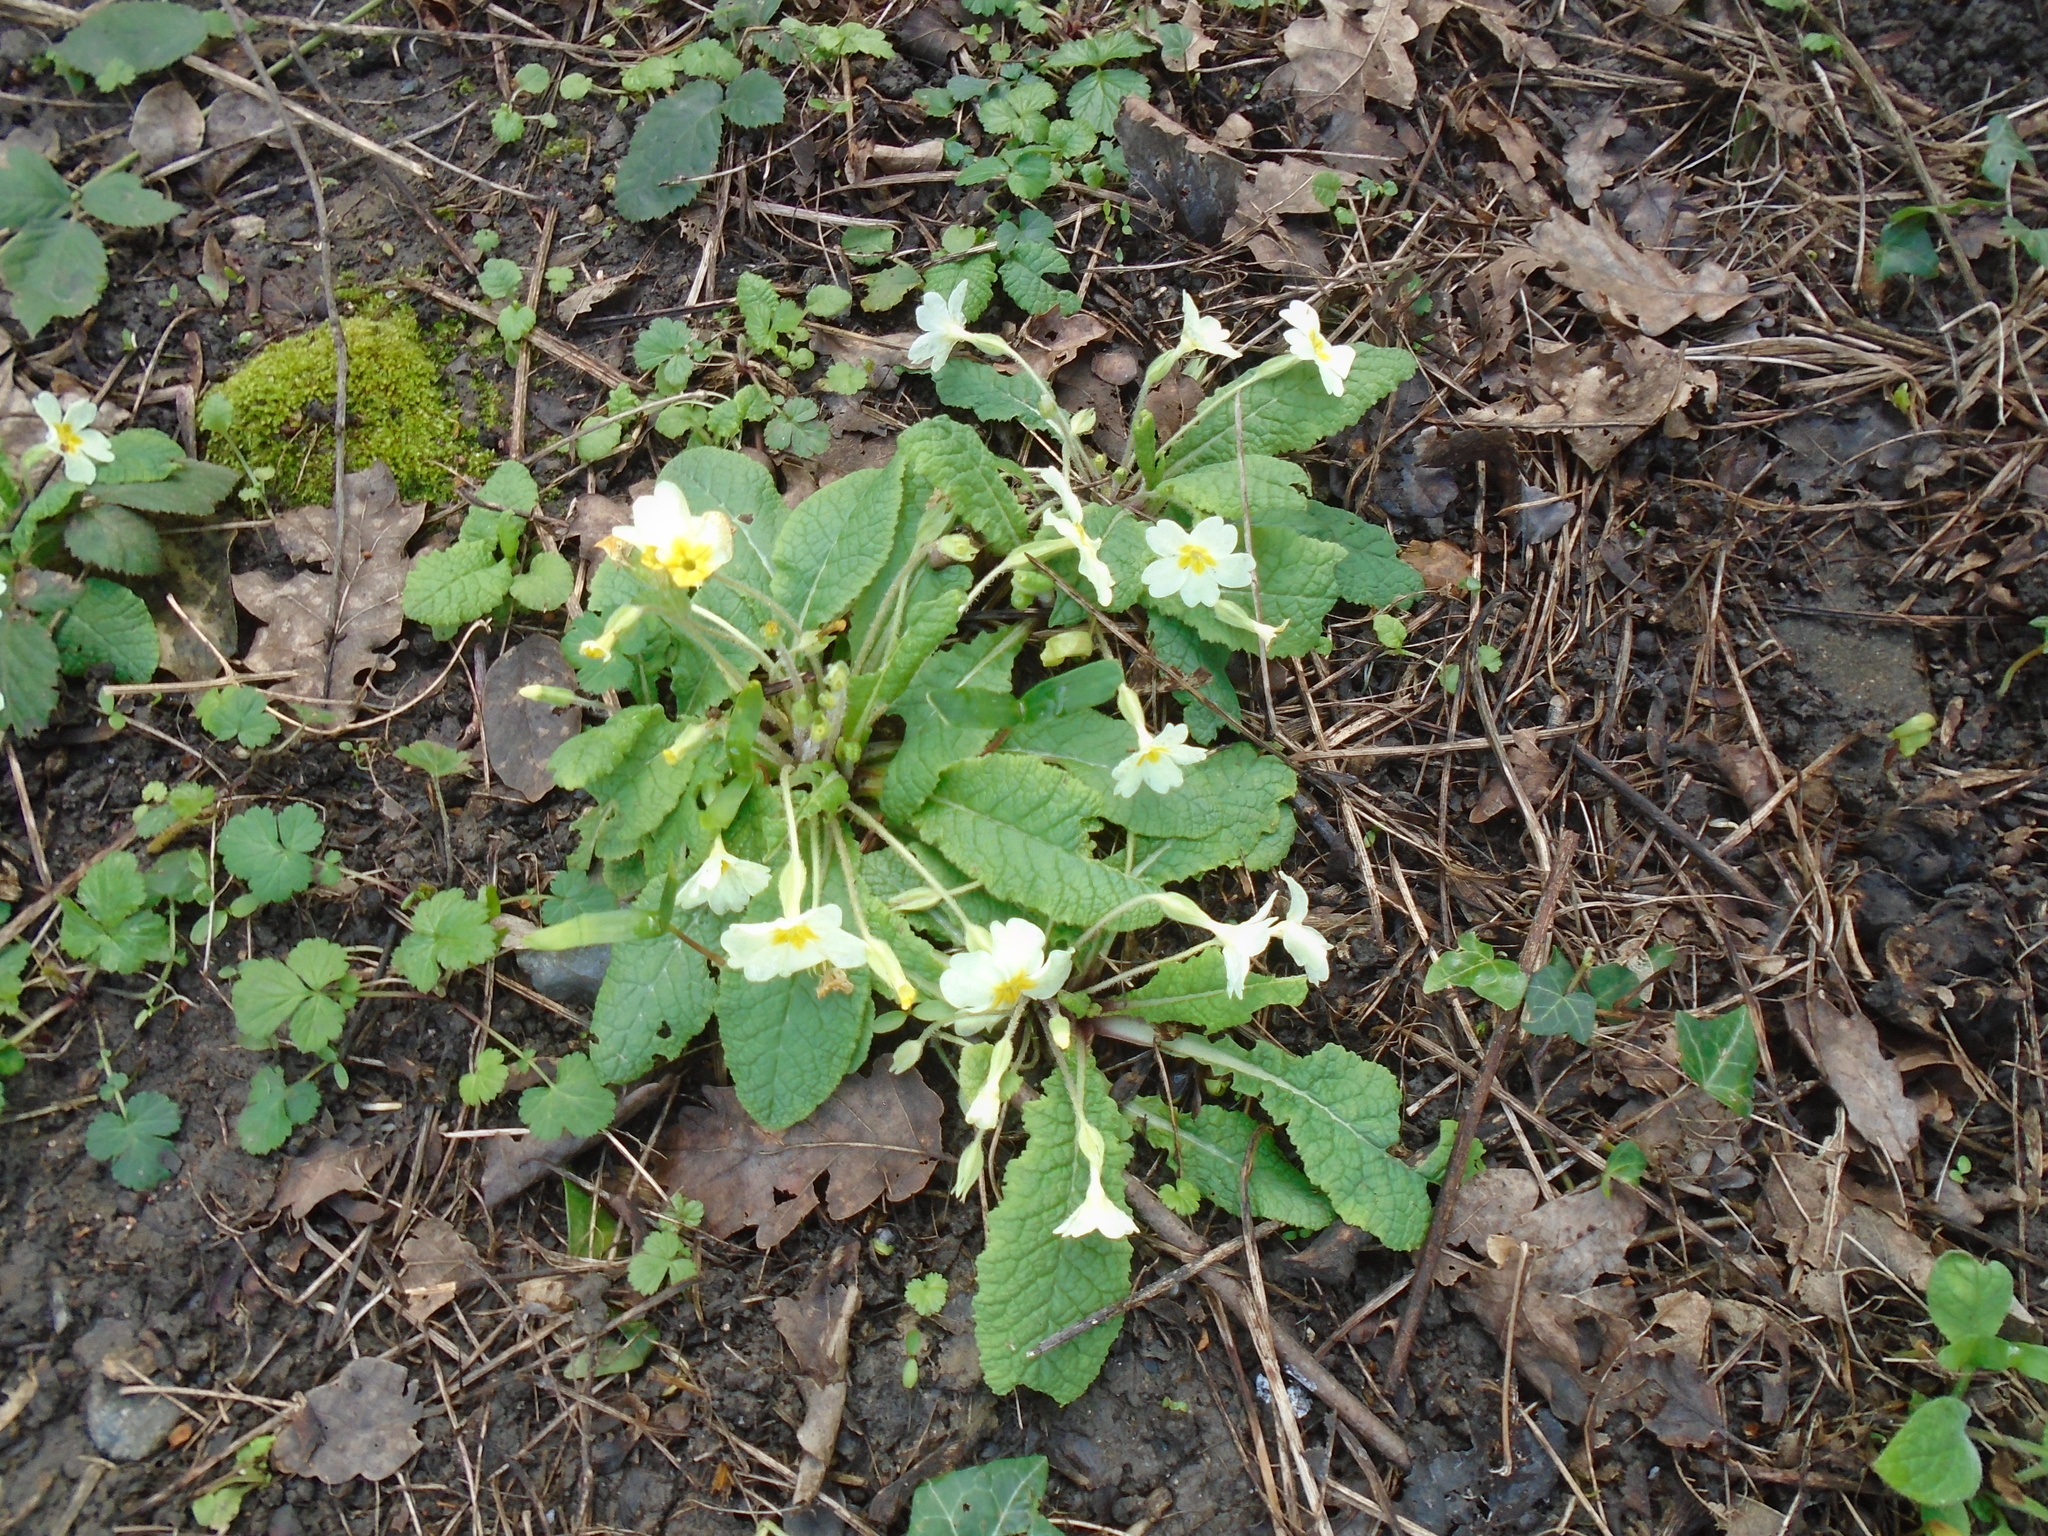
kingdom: Plantae
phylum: Tracheophyta
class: Magnoliopsida
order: Ericales
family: Primulaceae
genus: Primula
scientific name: Primula vulgaris
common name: Primrose
